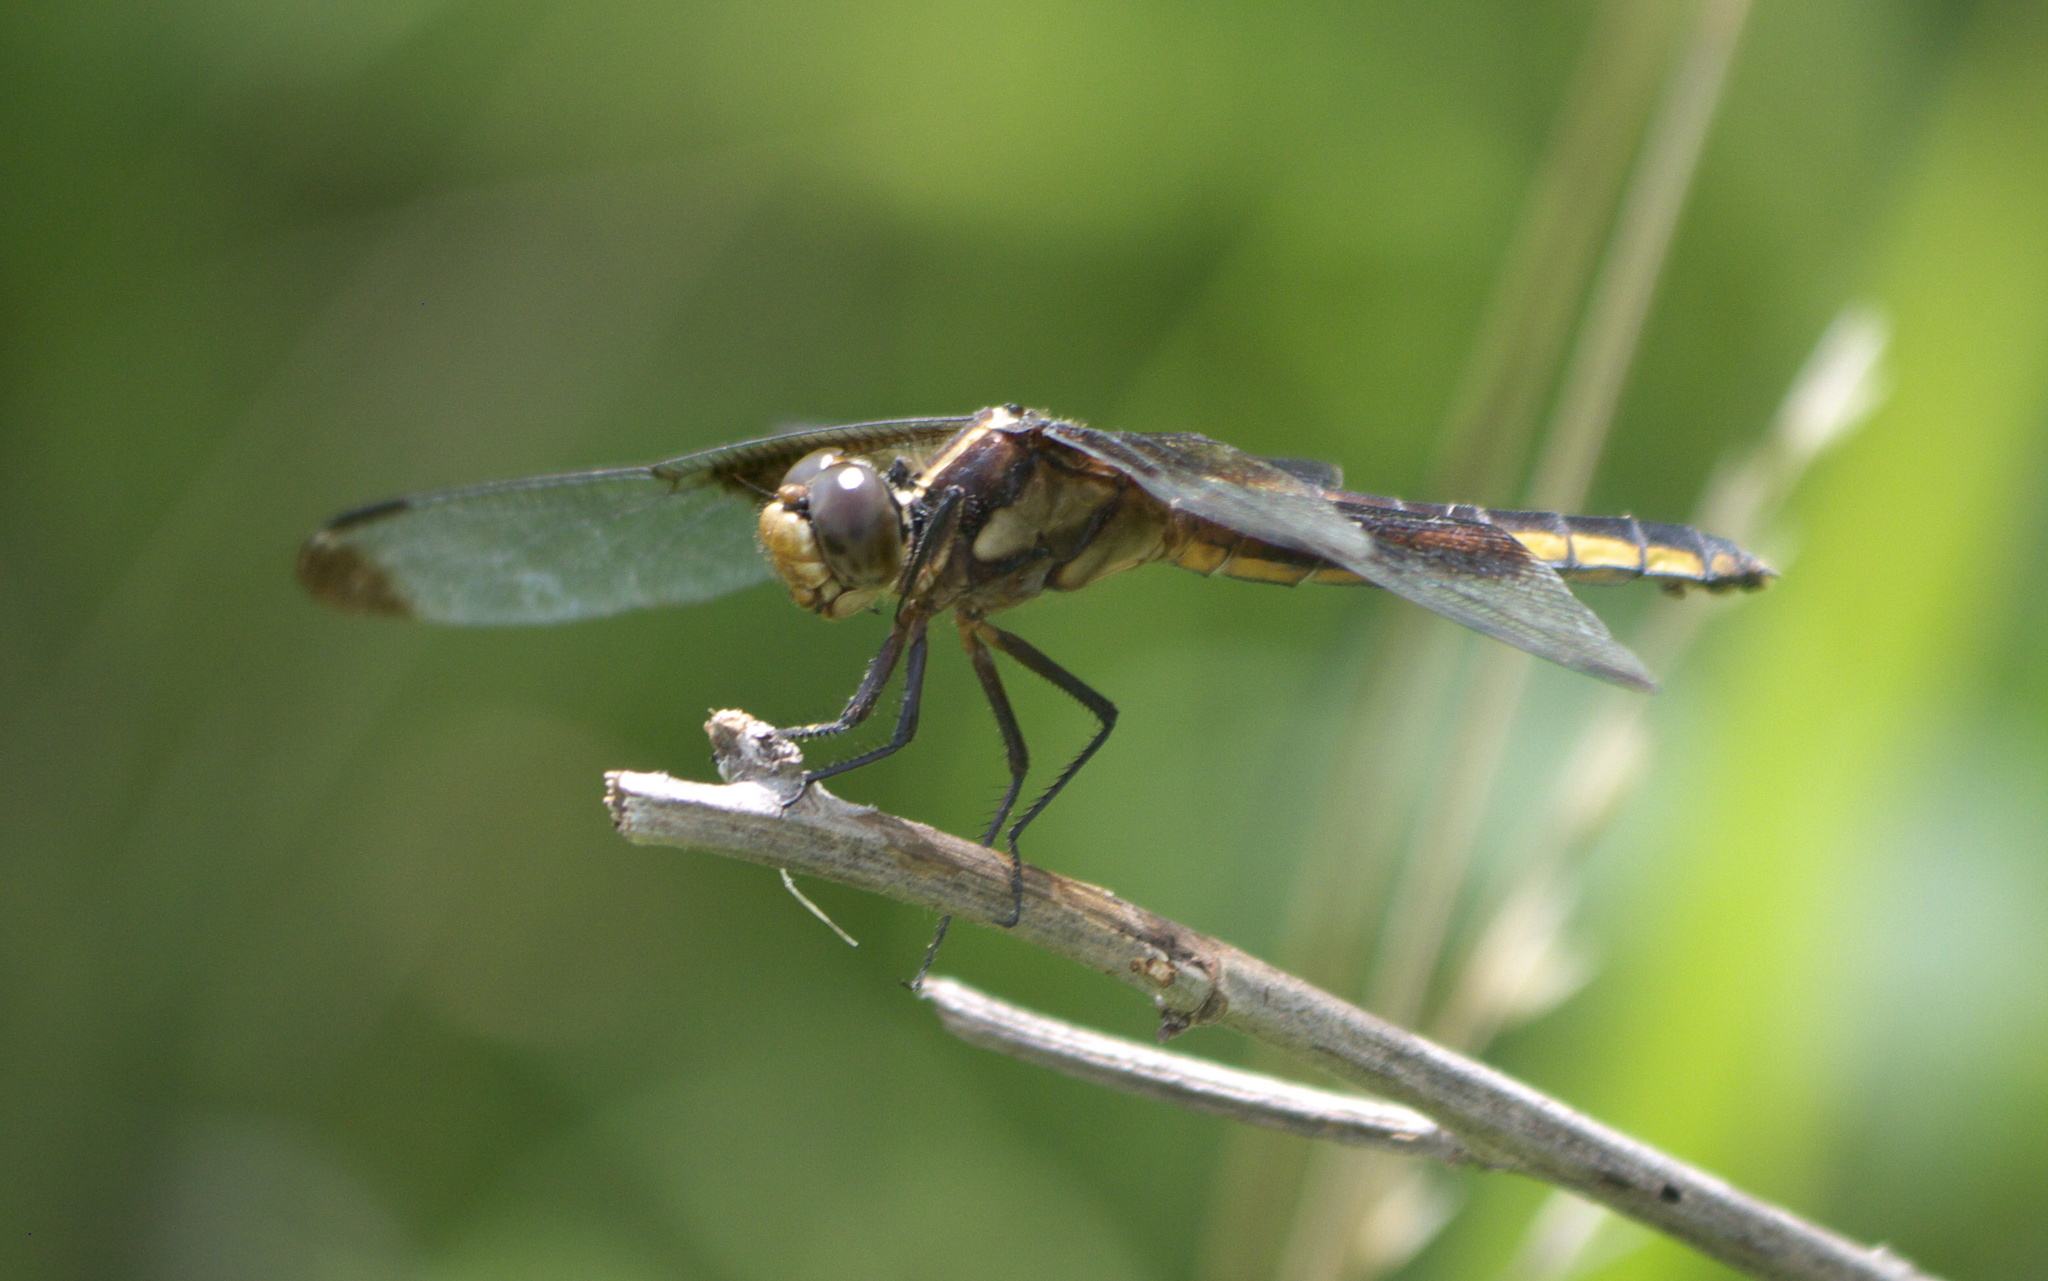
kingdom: Animalia
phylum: Arthropoda
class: Insecta
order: Odonata
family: Libellulidae
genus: Libellula
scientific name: Libellula luctuosa
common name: Widow skimmer
